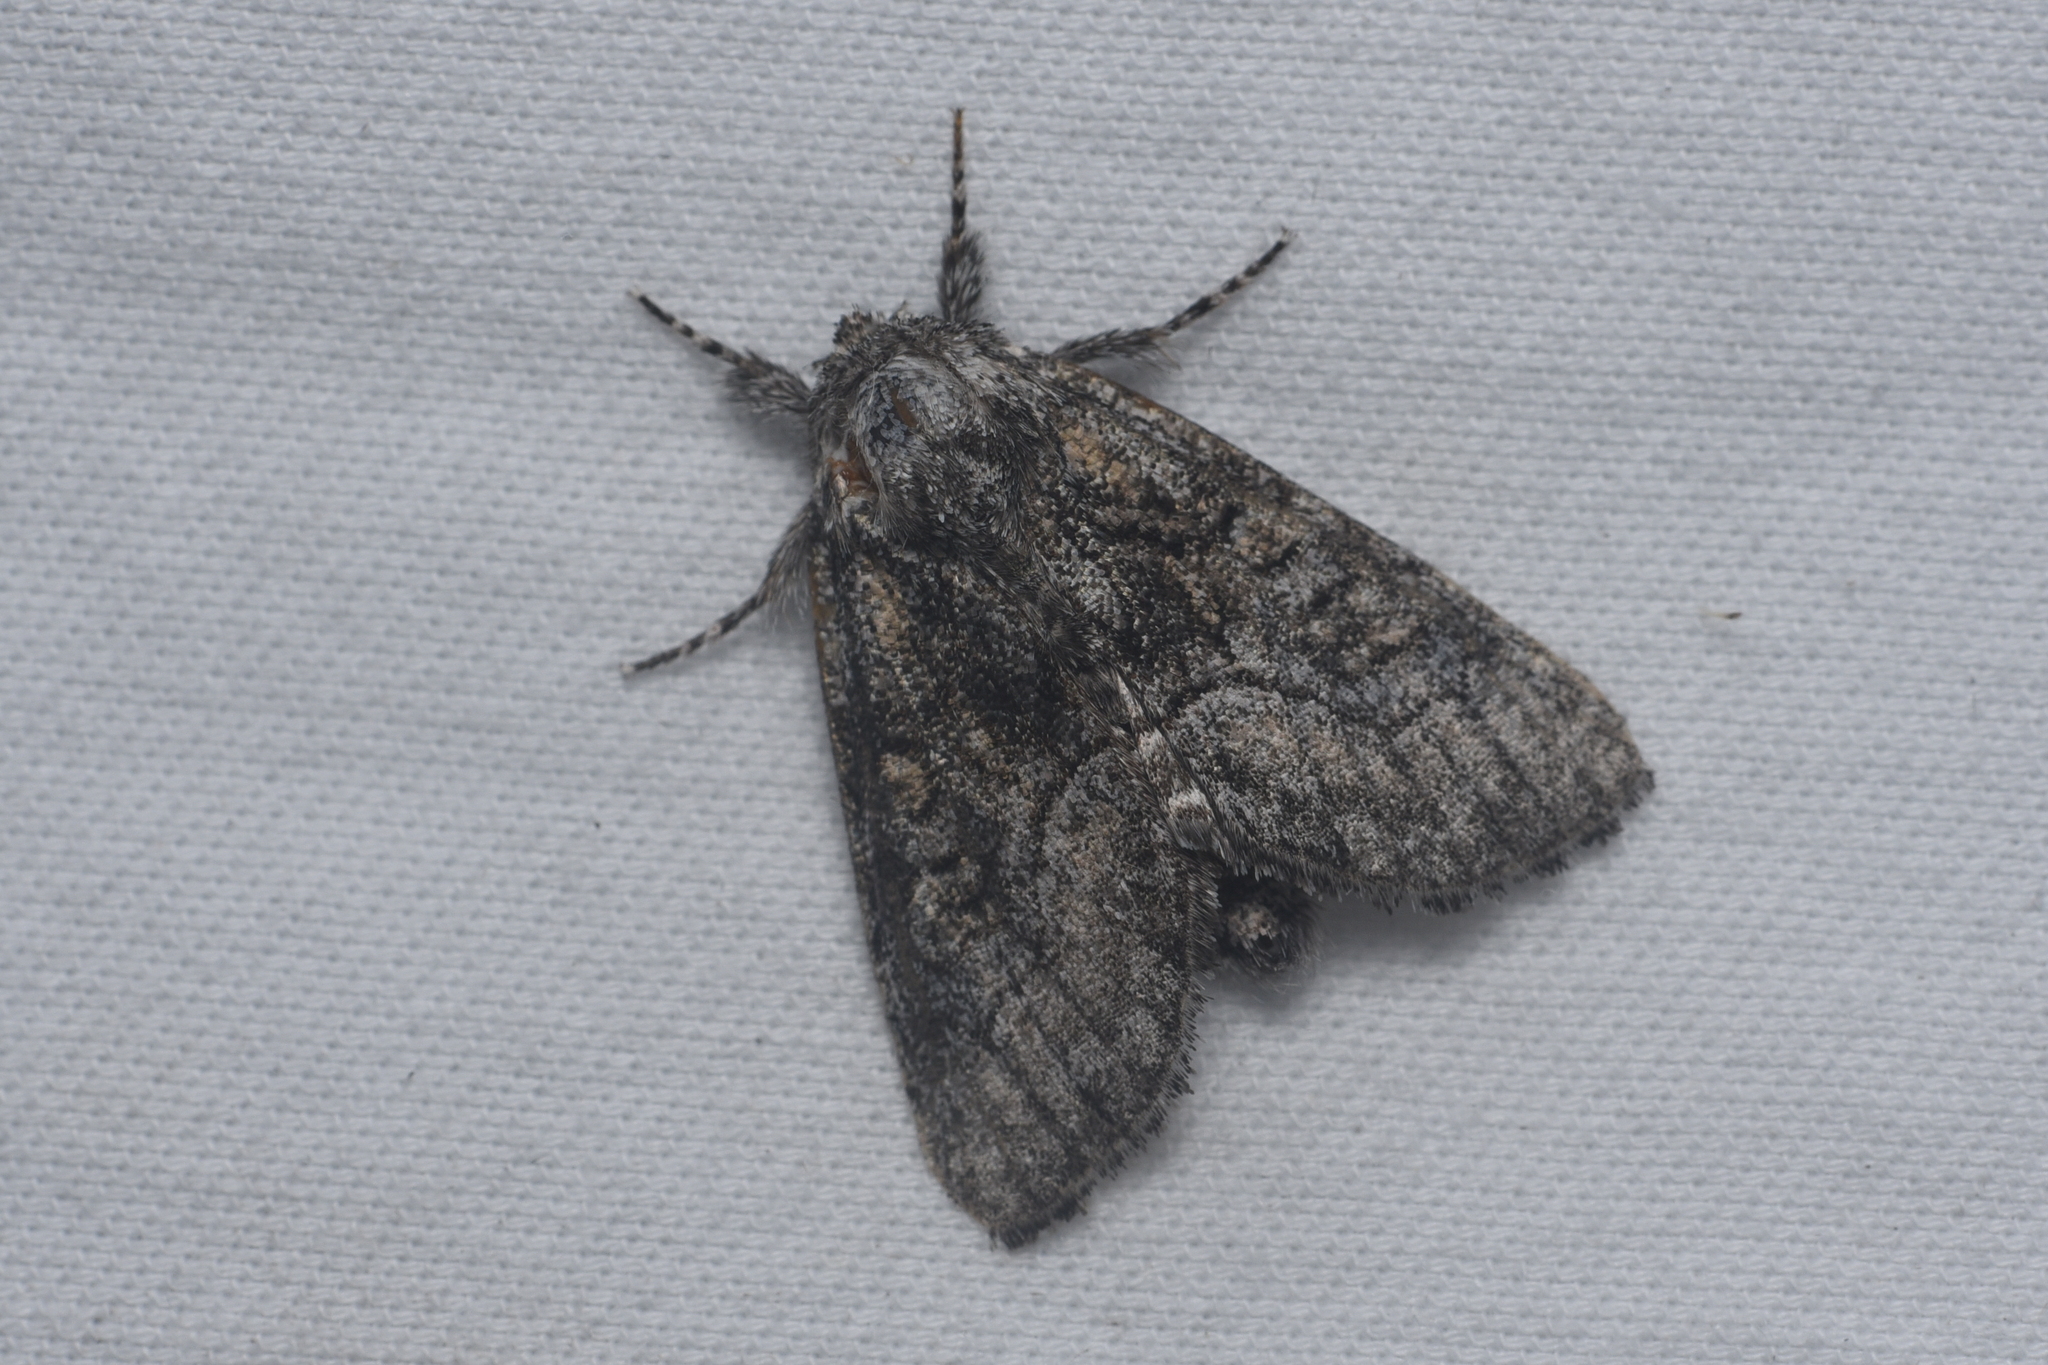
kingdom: Animalia
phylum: Arthropoda
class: Insecta
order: Lepidoptera
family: Noctuidae
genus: Raphia
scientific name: Raphia frater
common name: Brother
